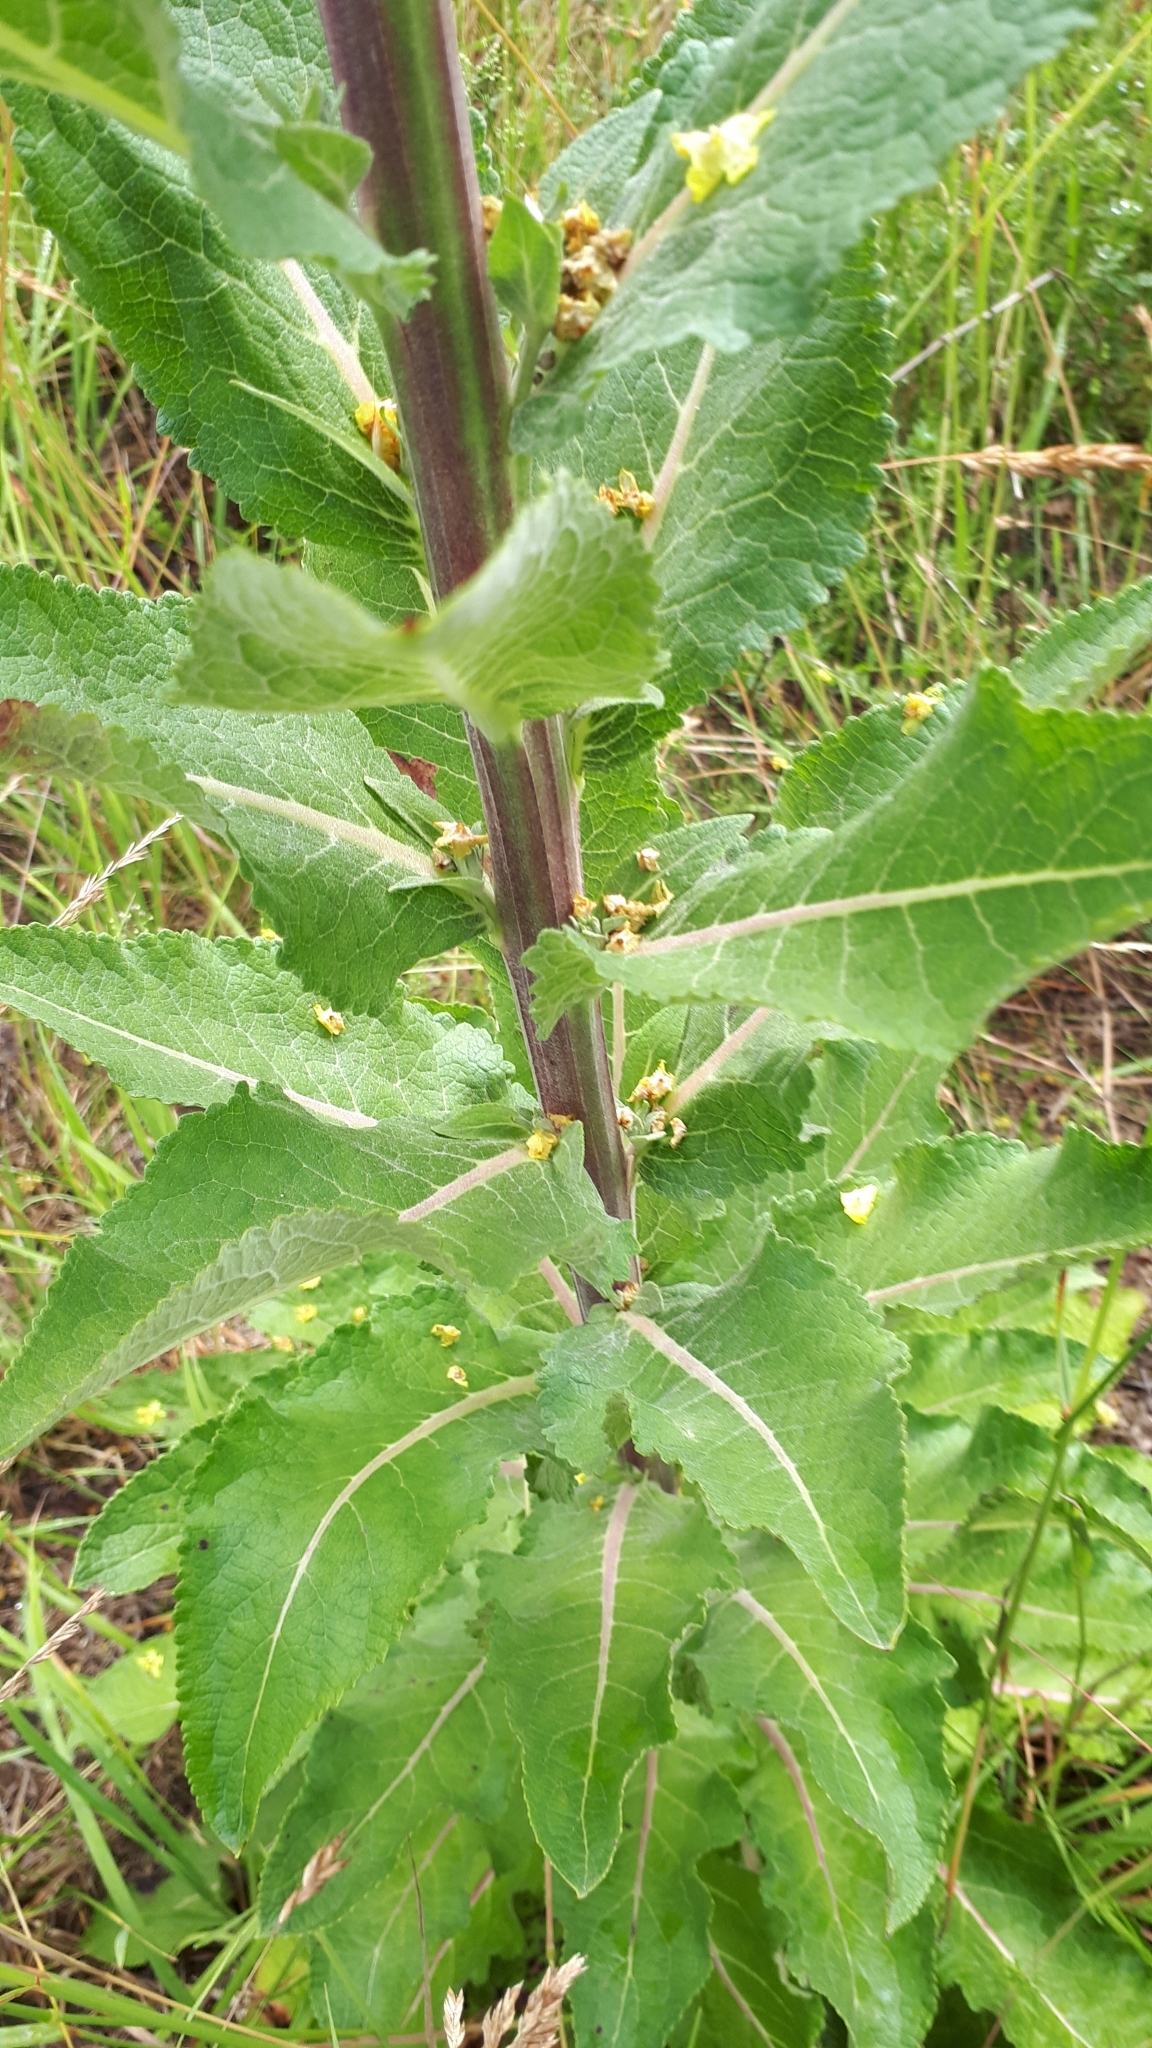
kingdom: Plantae
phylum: Tracheophyta
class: Magnoliopsida
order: Lamiales
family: Scrophulariaceae
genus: Verbascum
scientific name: Verbascum lychnitis
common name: White mullein
